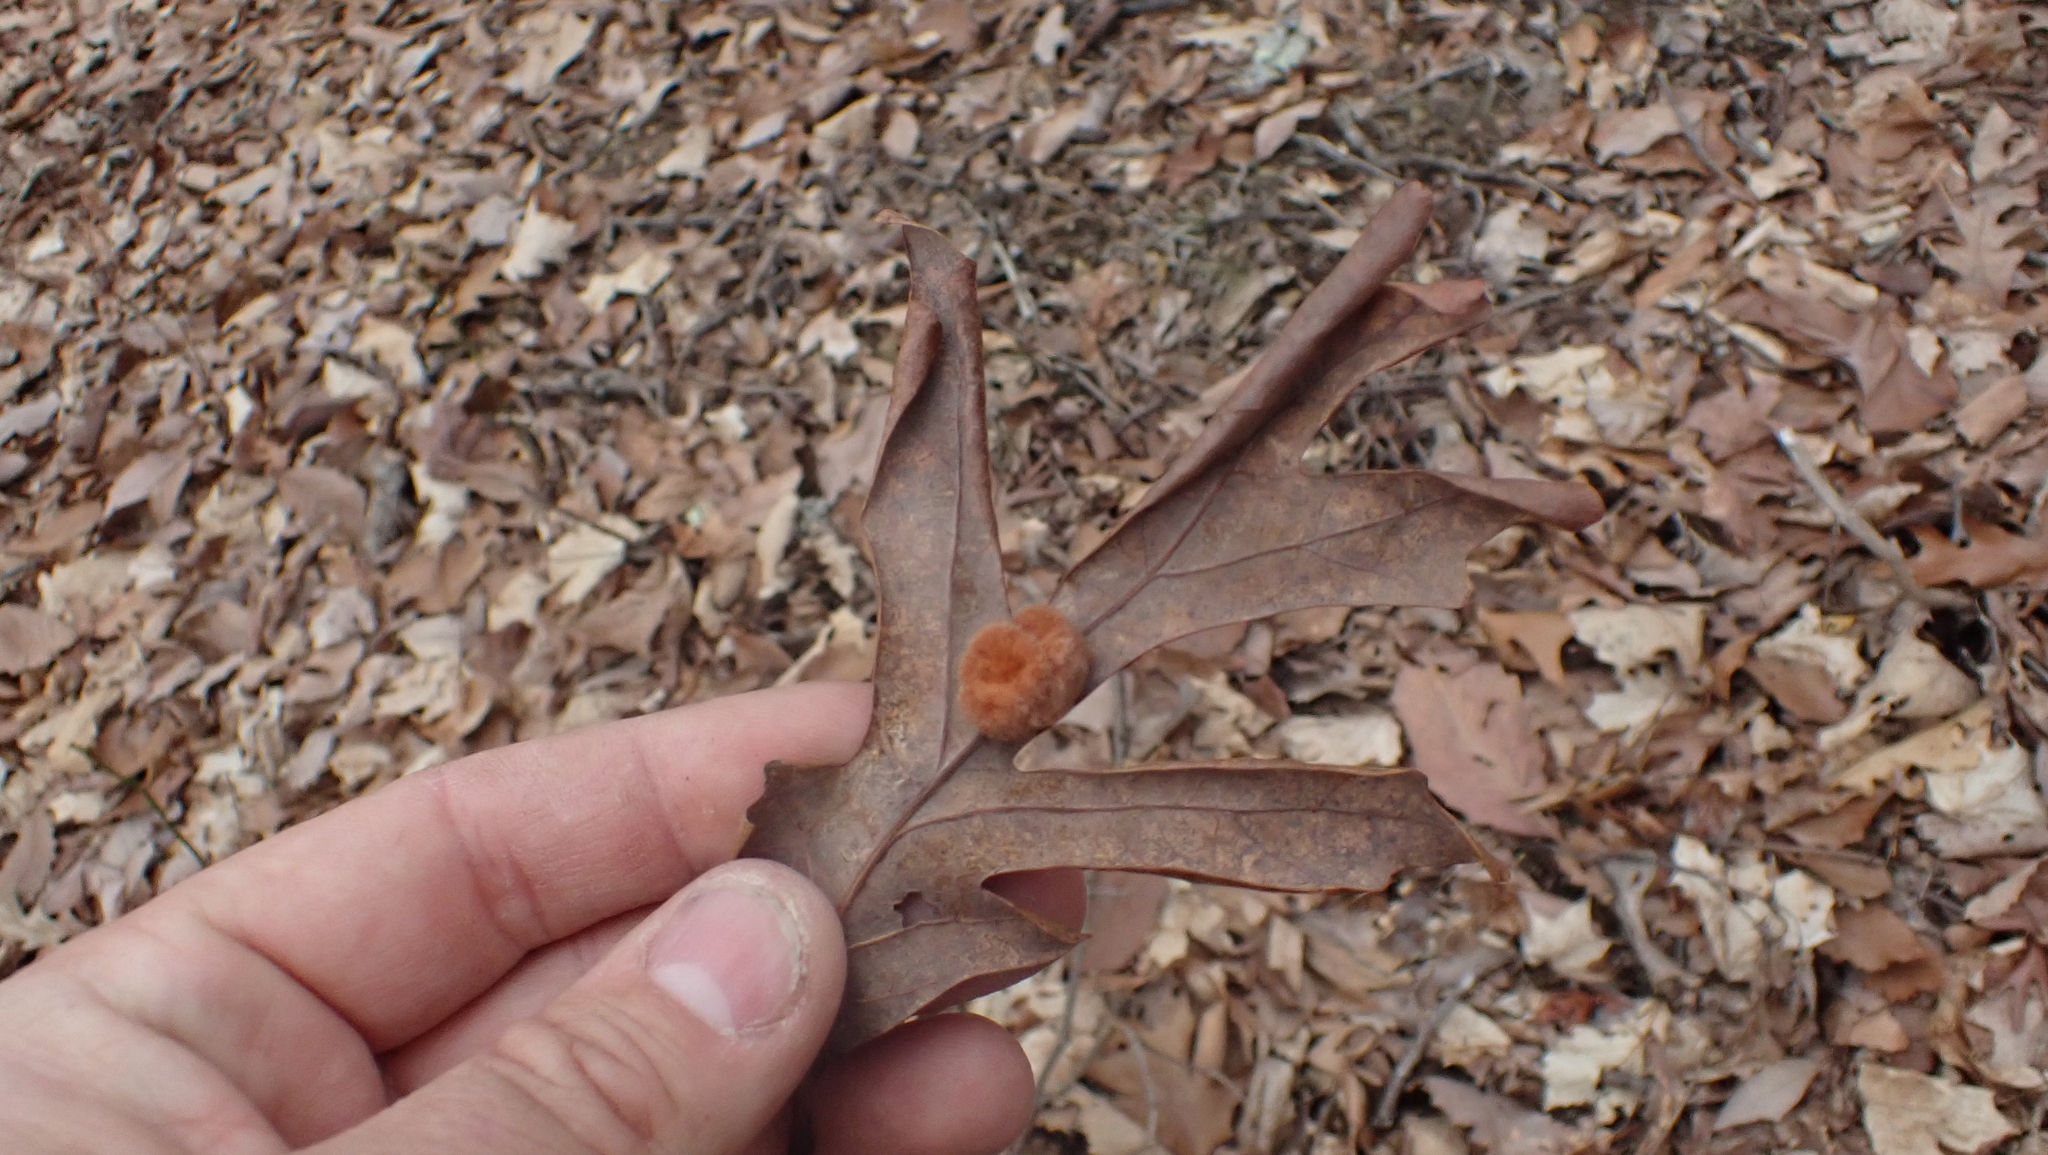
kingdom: Animalia
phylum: Arthropoda
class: Insecta
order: Hymenoptera
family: Cynipidae
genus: Andricus
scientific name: Andricus quercusflocci
